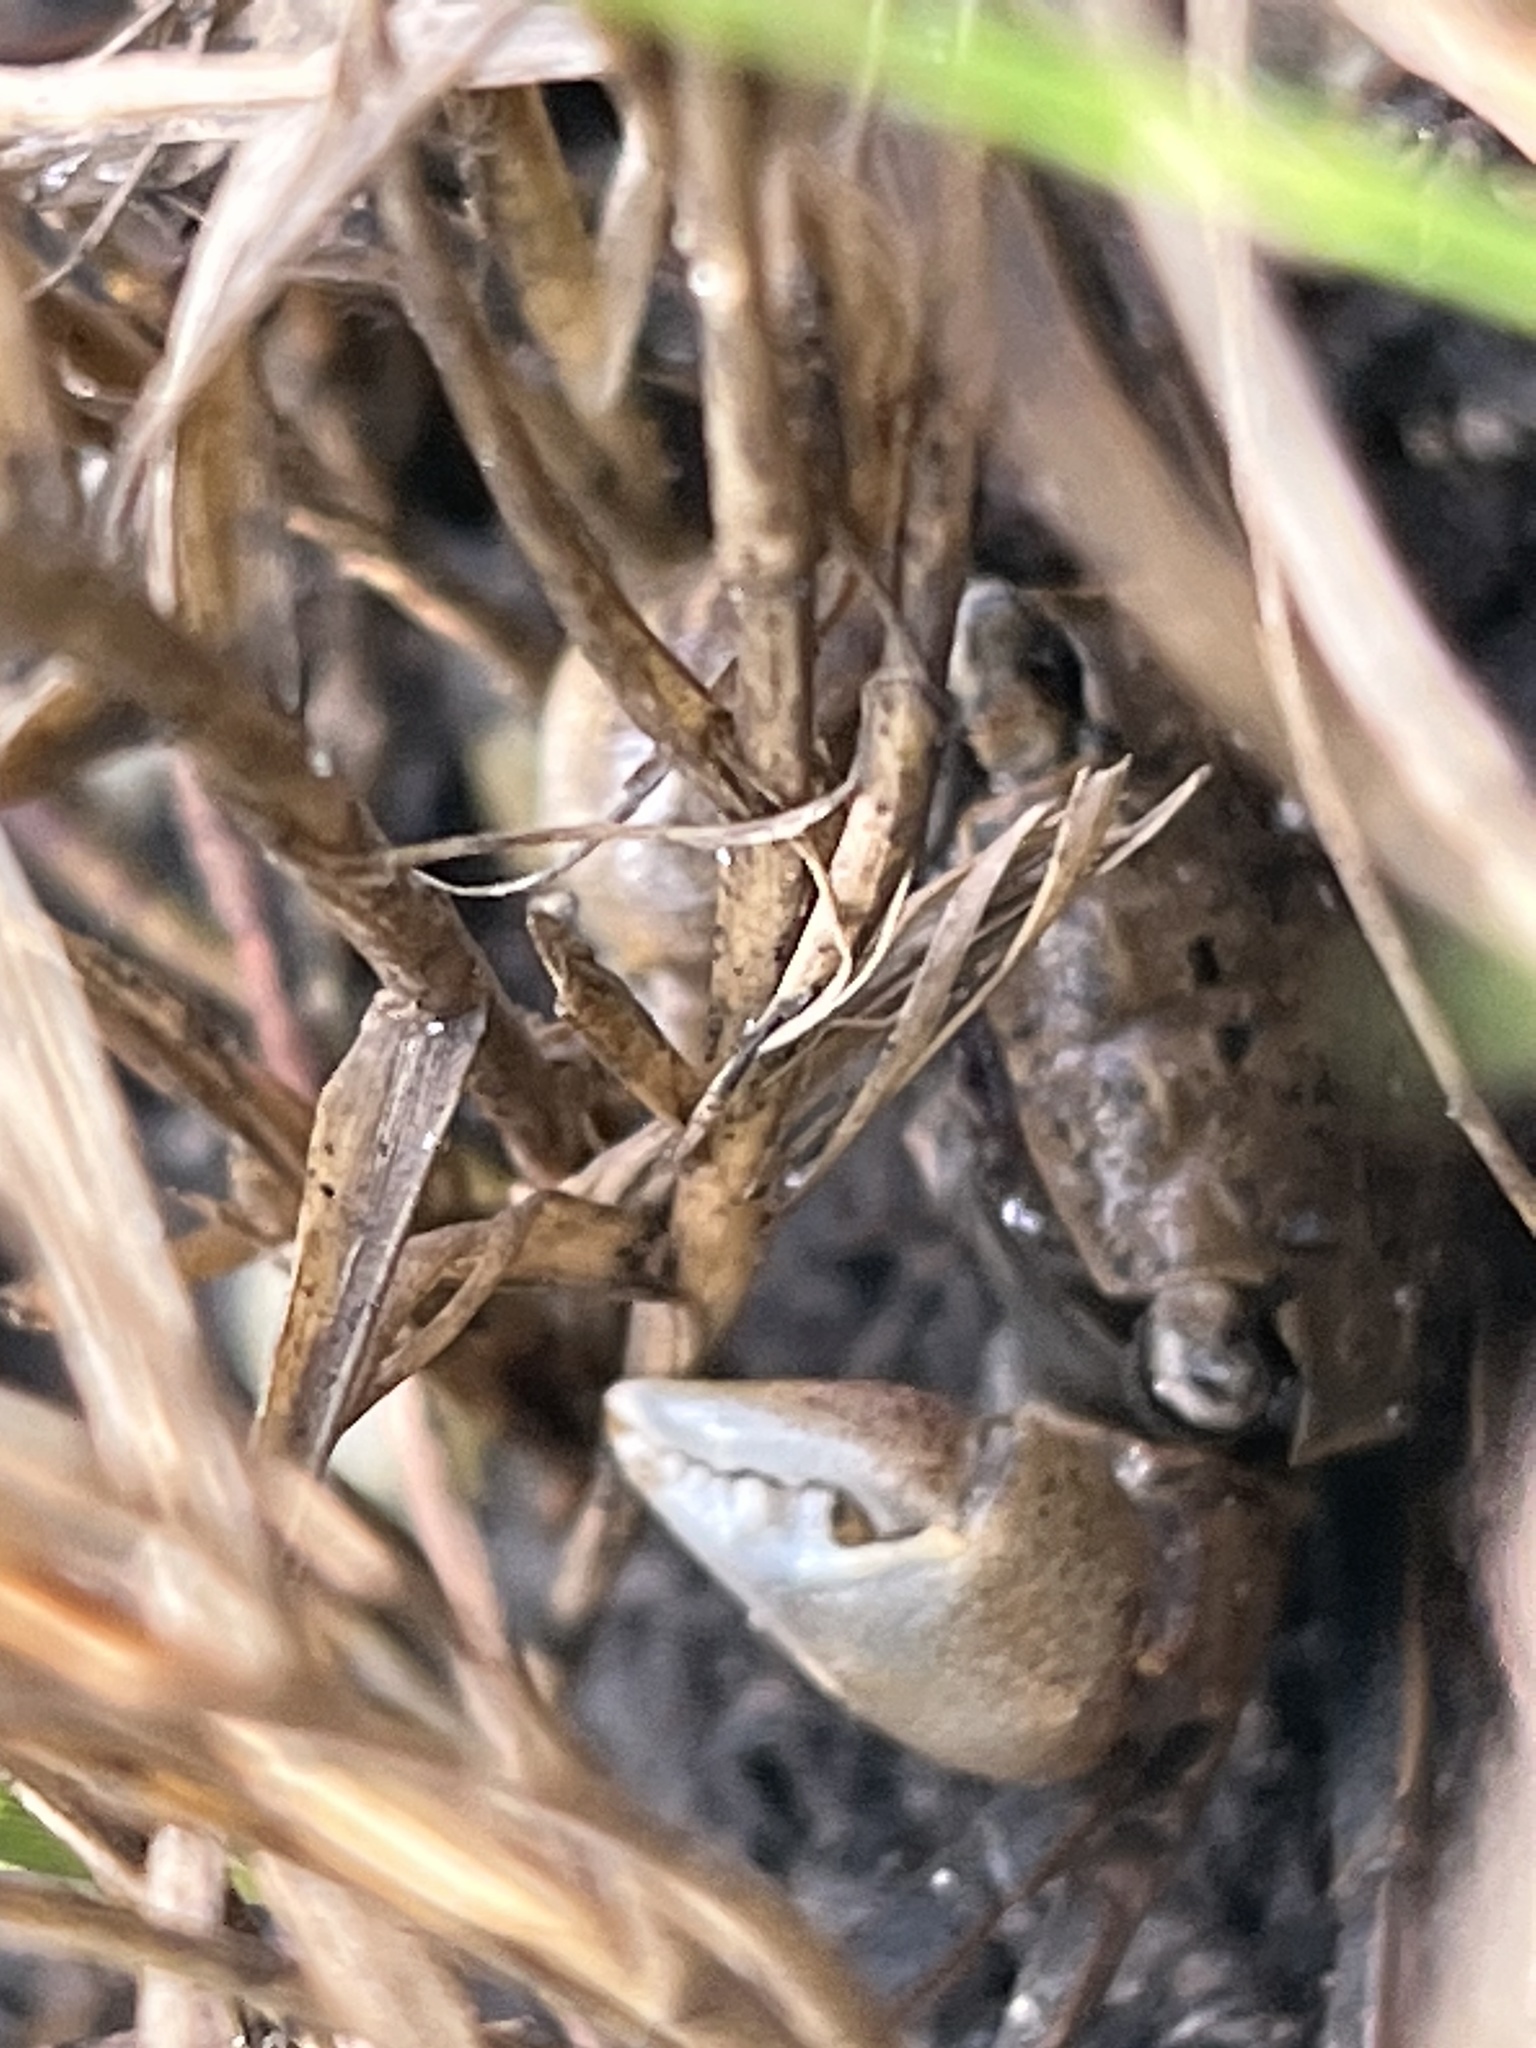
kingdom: Animalia
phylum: Arthropoda
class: Malacostraca
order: Decapoda
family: Sesarmidae
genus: Armases
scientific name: Armases cinereum
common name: Squareback marsh crab
